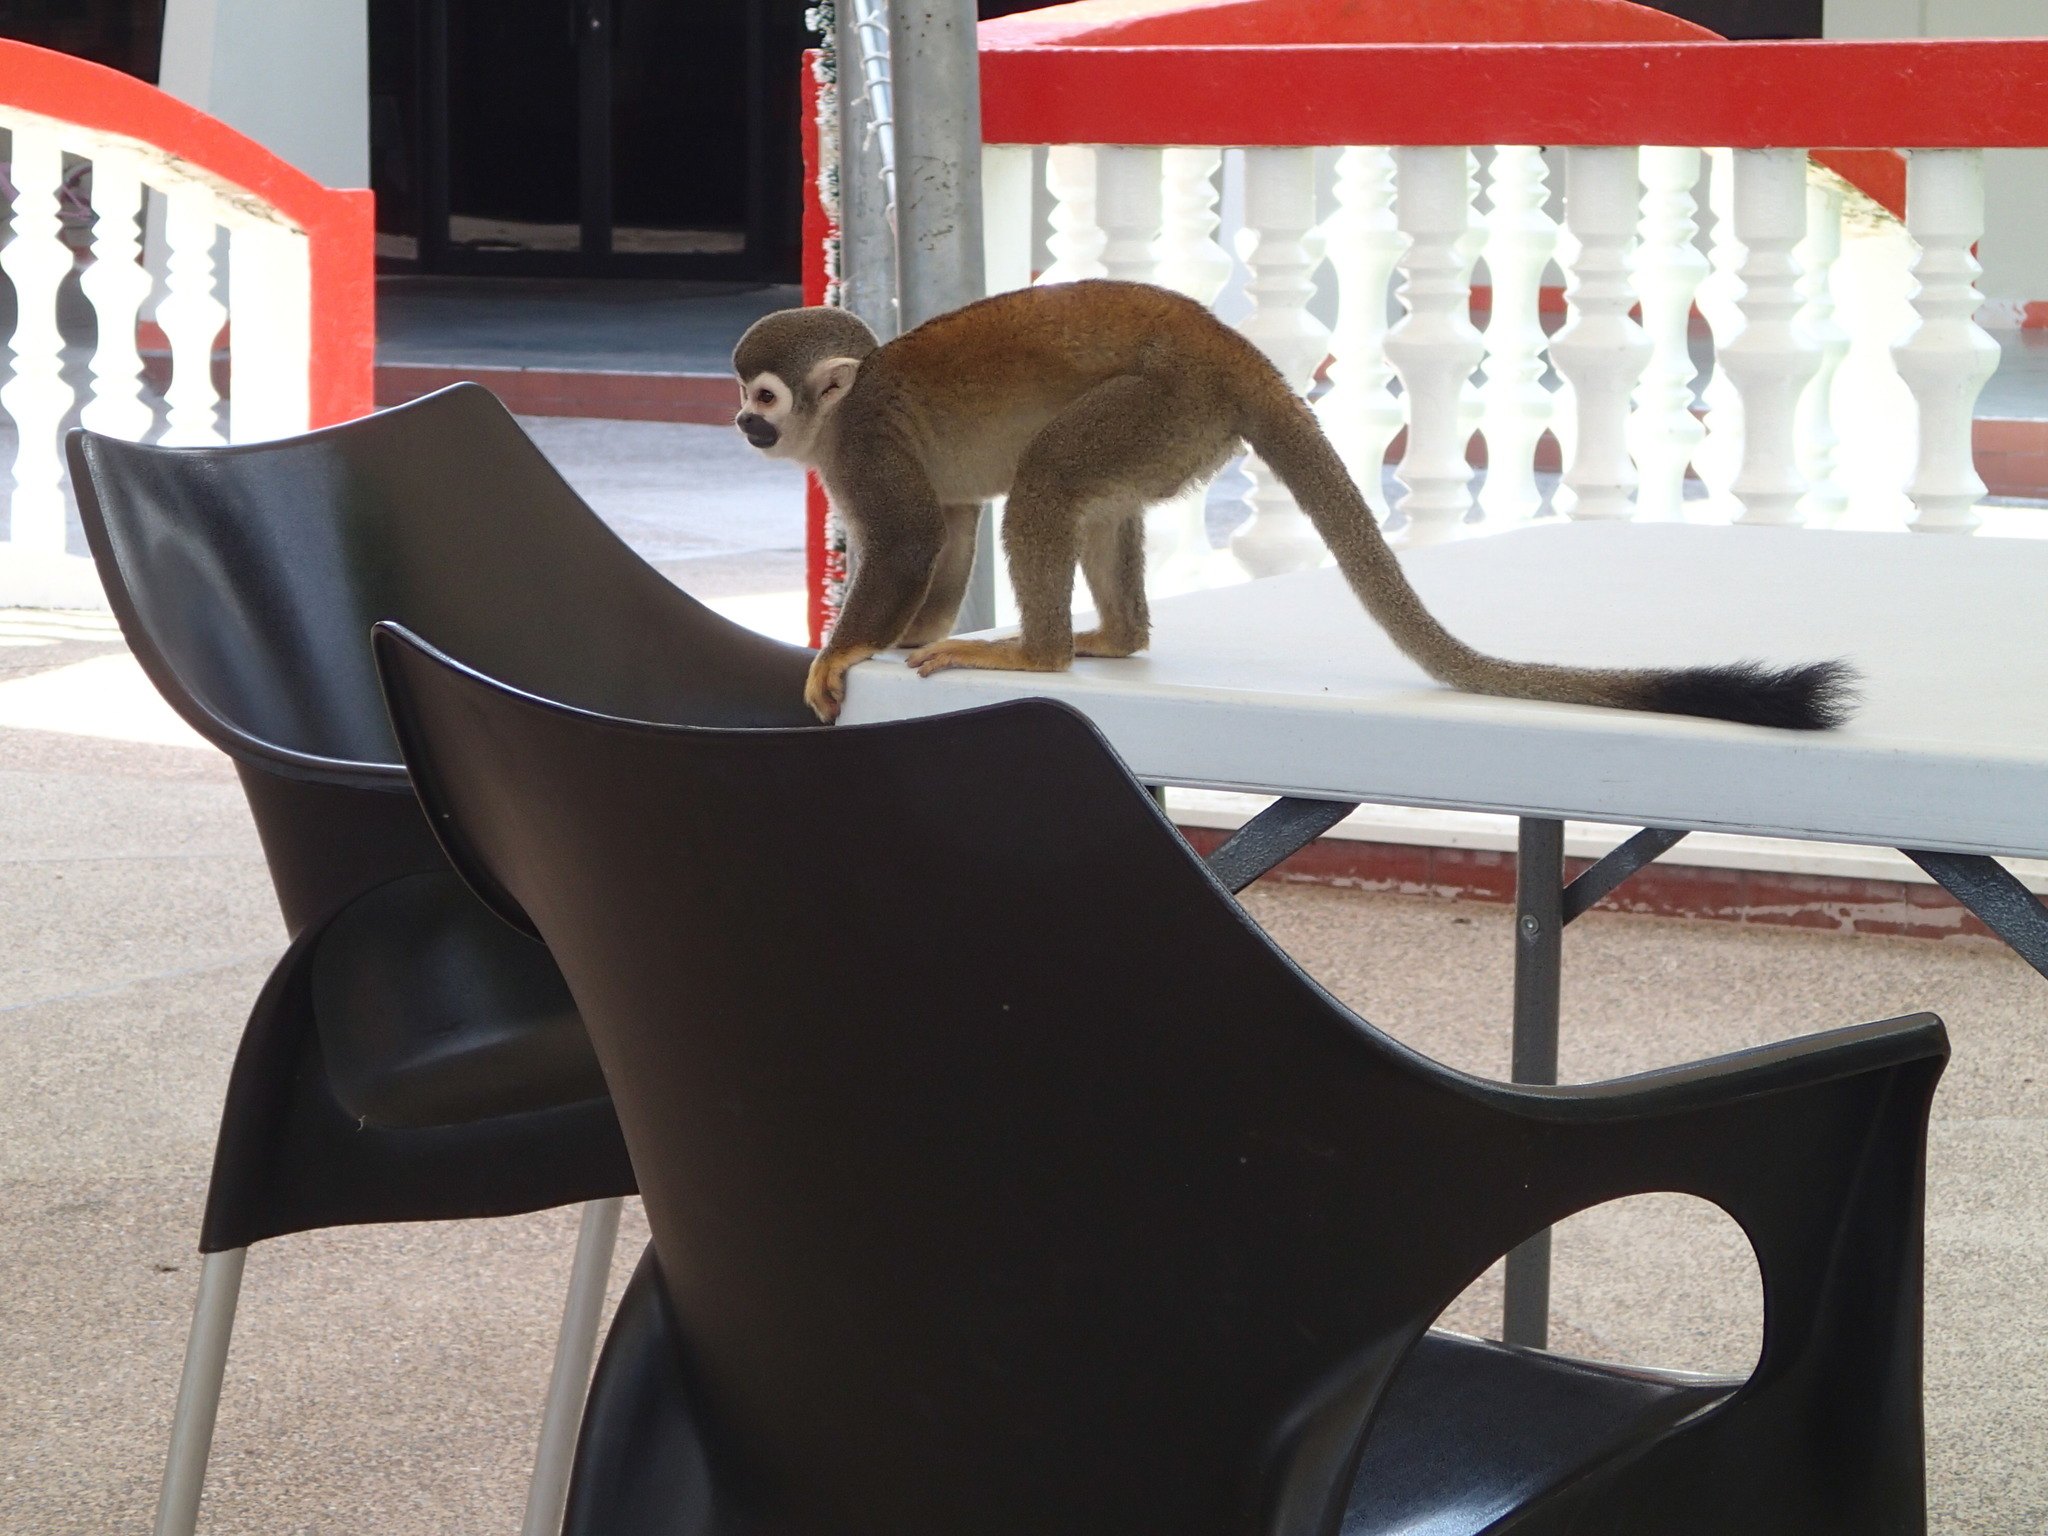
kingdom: Animalia
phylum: Chordata
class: Mammalia
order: Primates
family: Cebidae
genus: Saimiri
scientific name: Saimiri cassiquiarensis
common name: Humboldt’s squirrel monkey
